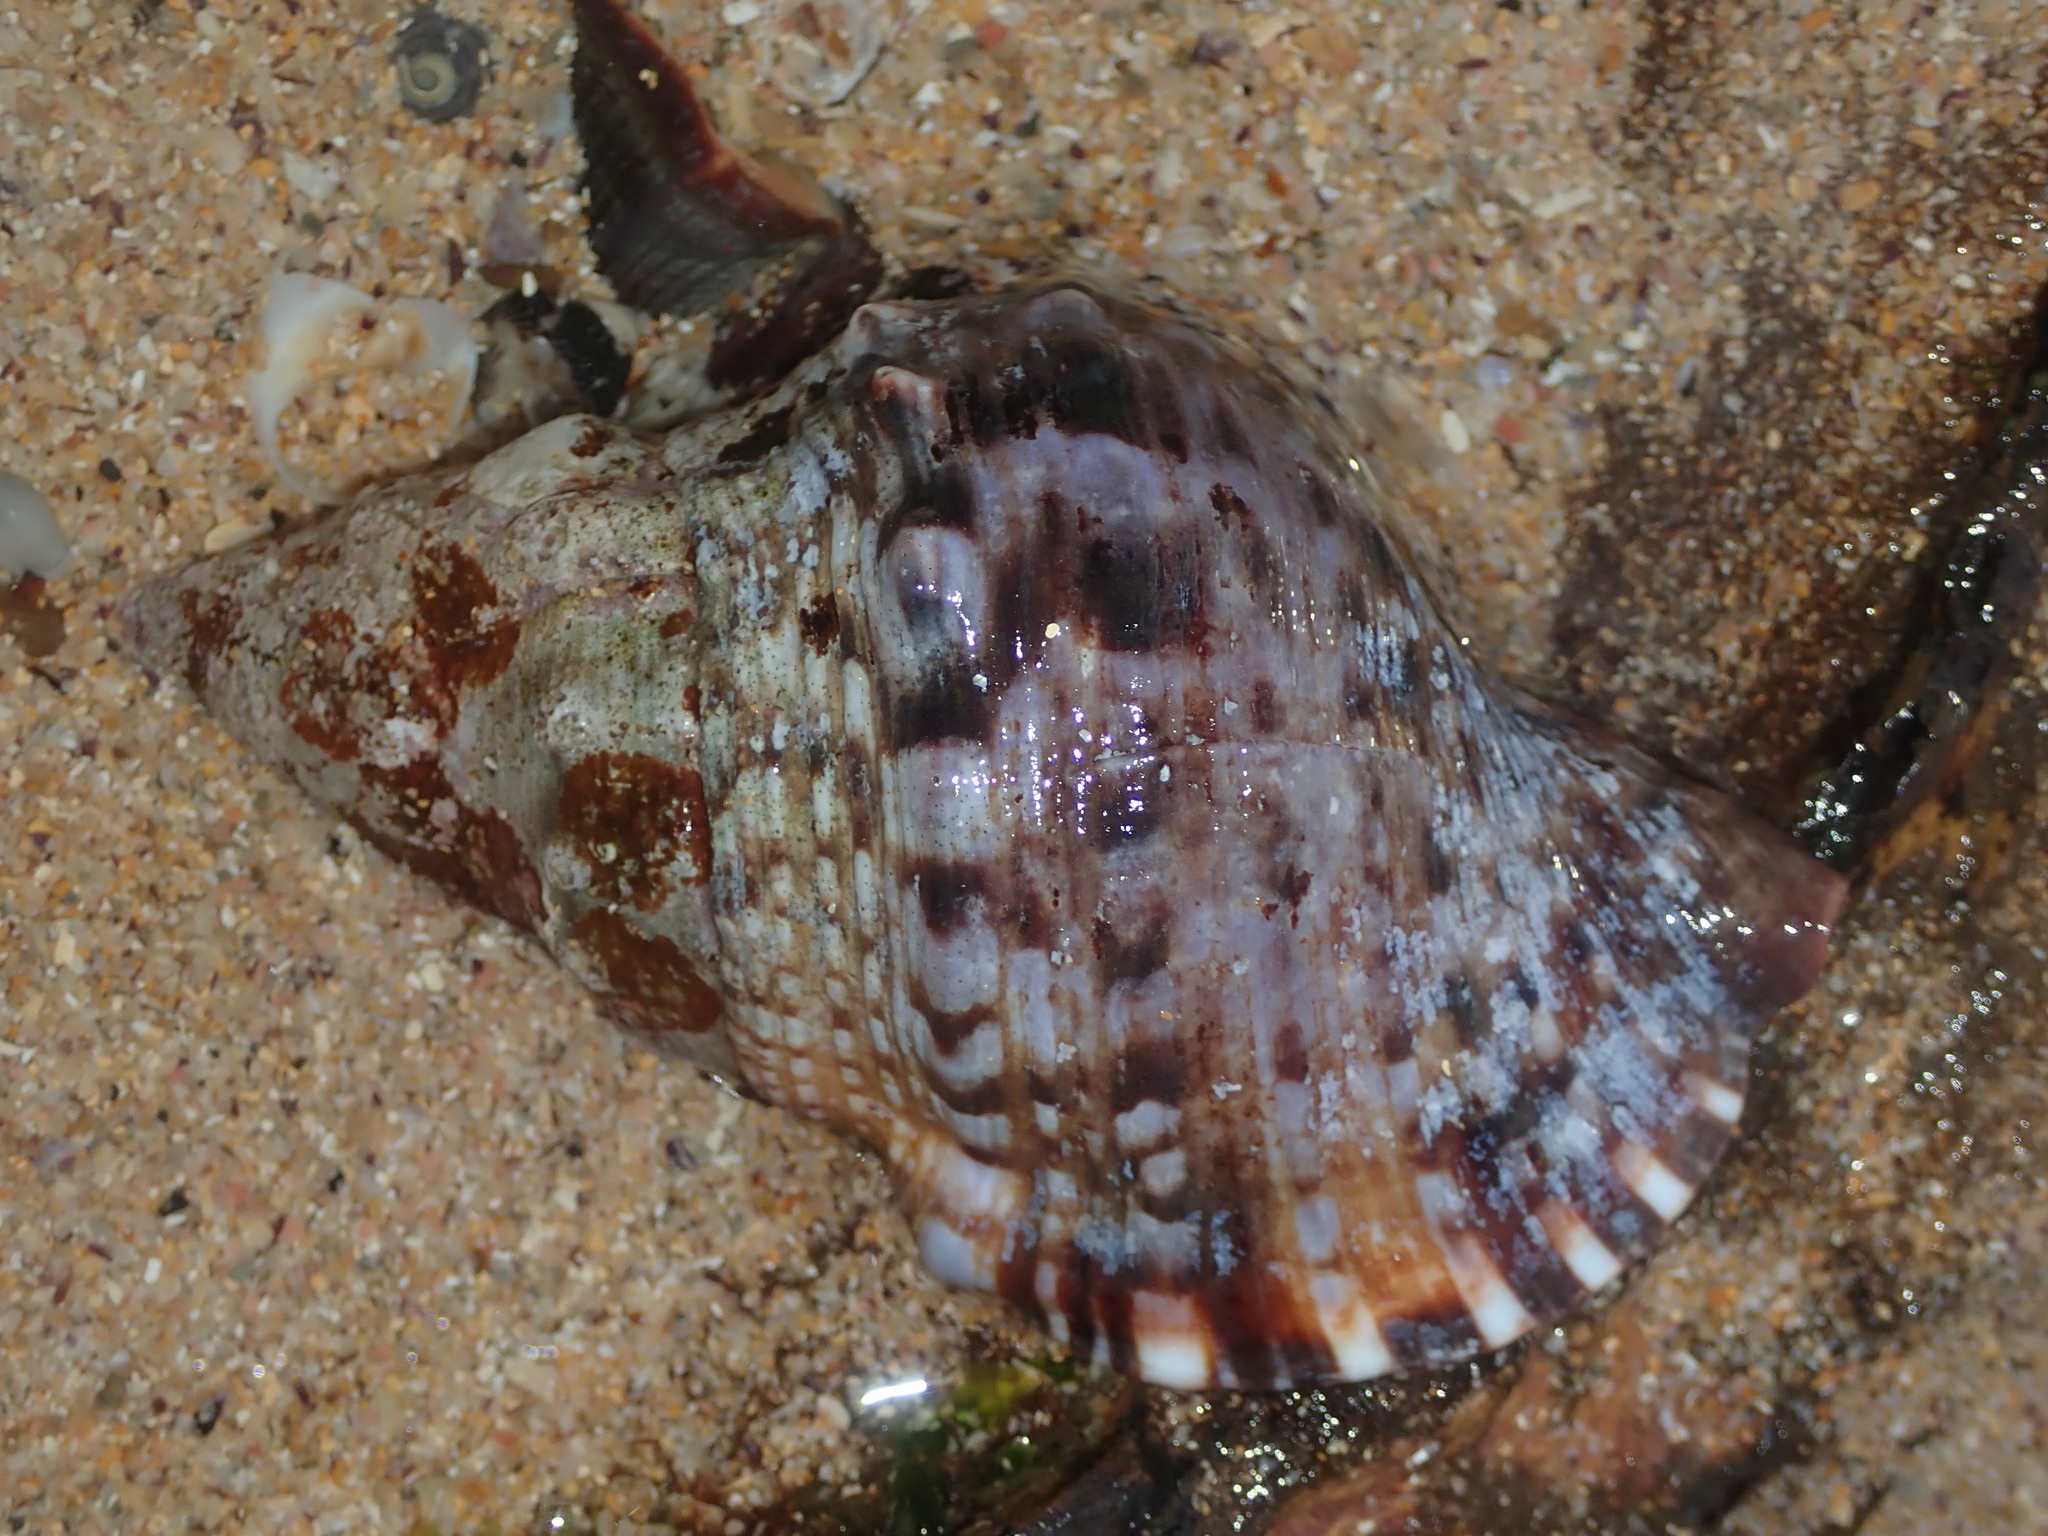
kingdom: Animalia
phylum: Mollusca
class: Gastropoda
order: Littorinimorpha
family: Charoniidae
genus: Charonia
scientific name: Charonia lampas
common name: Knobbed triton
